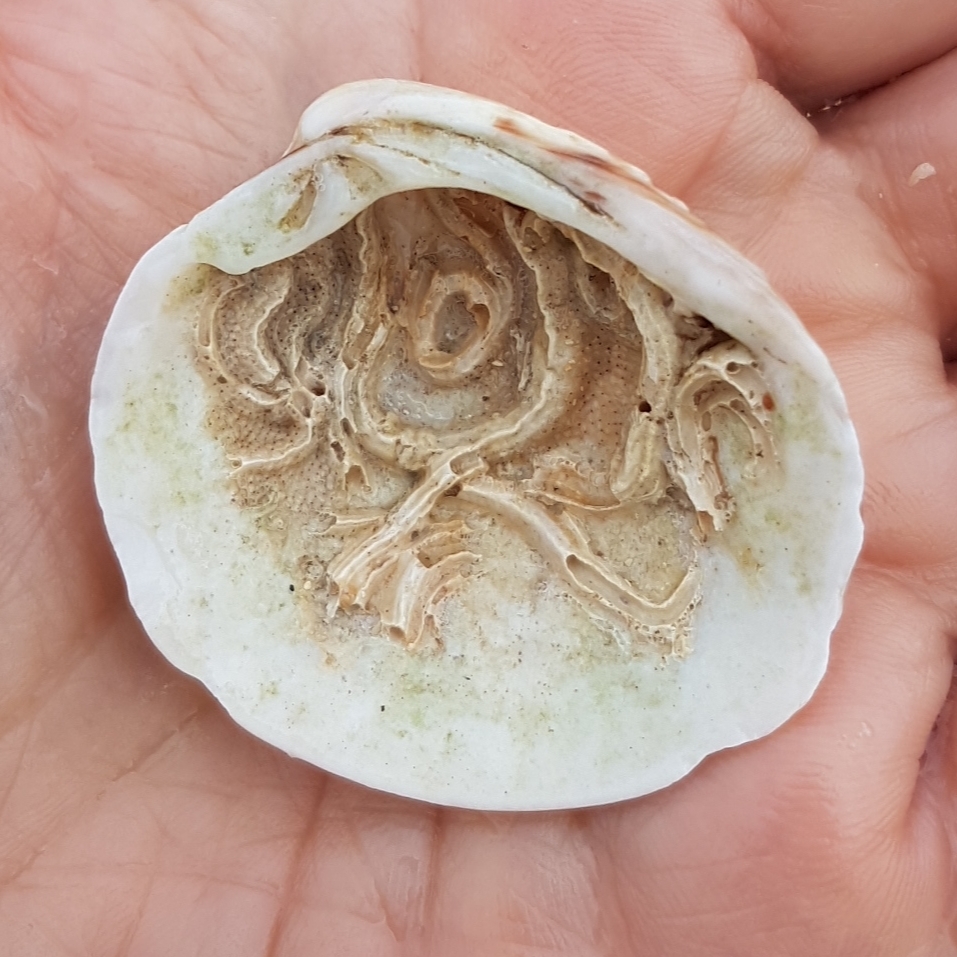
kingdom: Animalia
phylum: Mollusca
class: Bivalvia
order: Venerida
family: Veneridae
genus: Venus
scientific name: Venus verrucosa
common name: Warty venus
